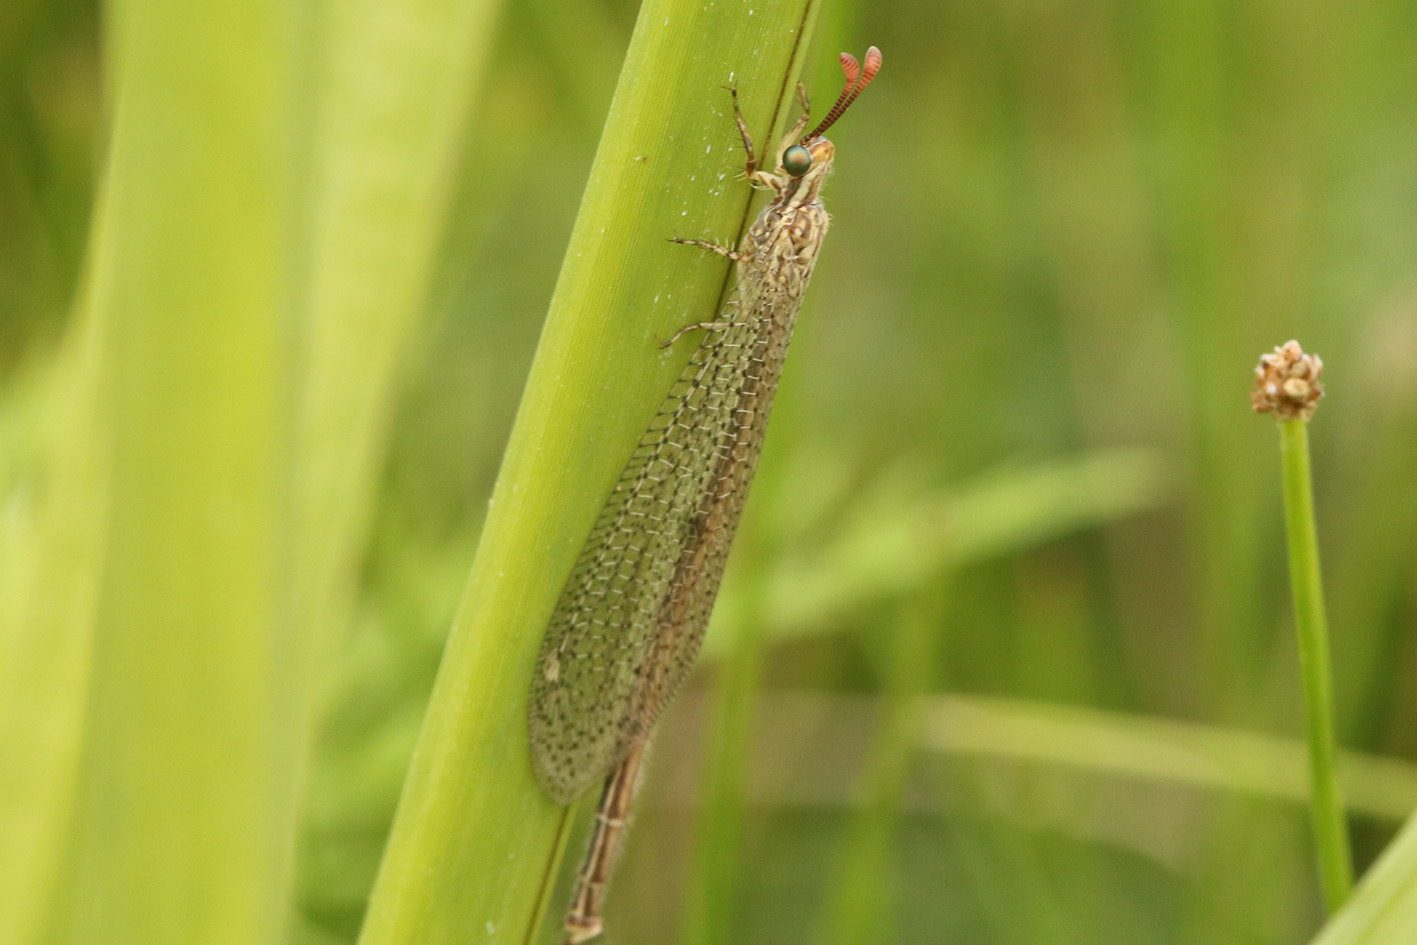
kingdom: Animalia
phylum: Arthropoda
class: Insecta
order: Neuroptera
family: Myrmeleontidae
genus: Argentoleon
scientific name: Argentoleon irrigatus
